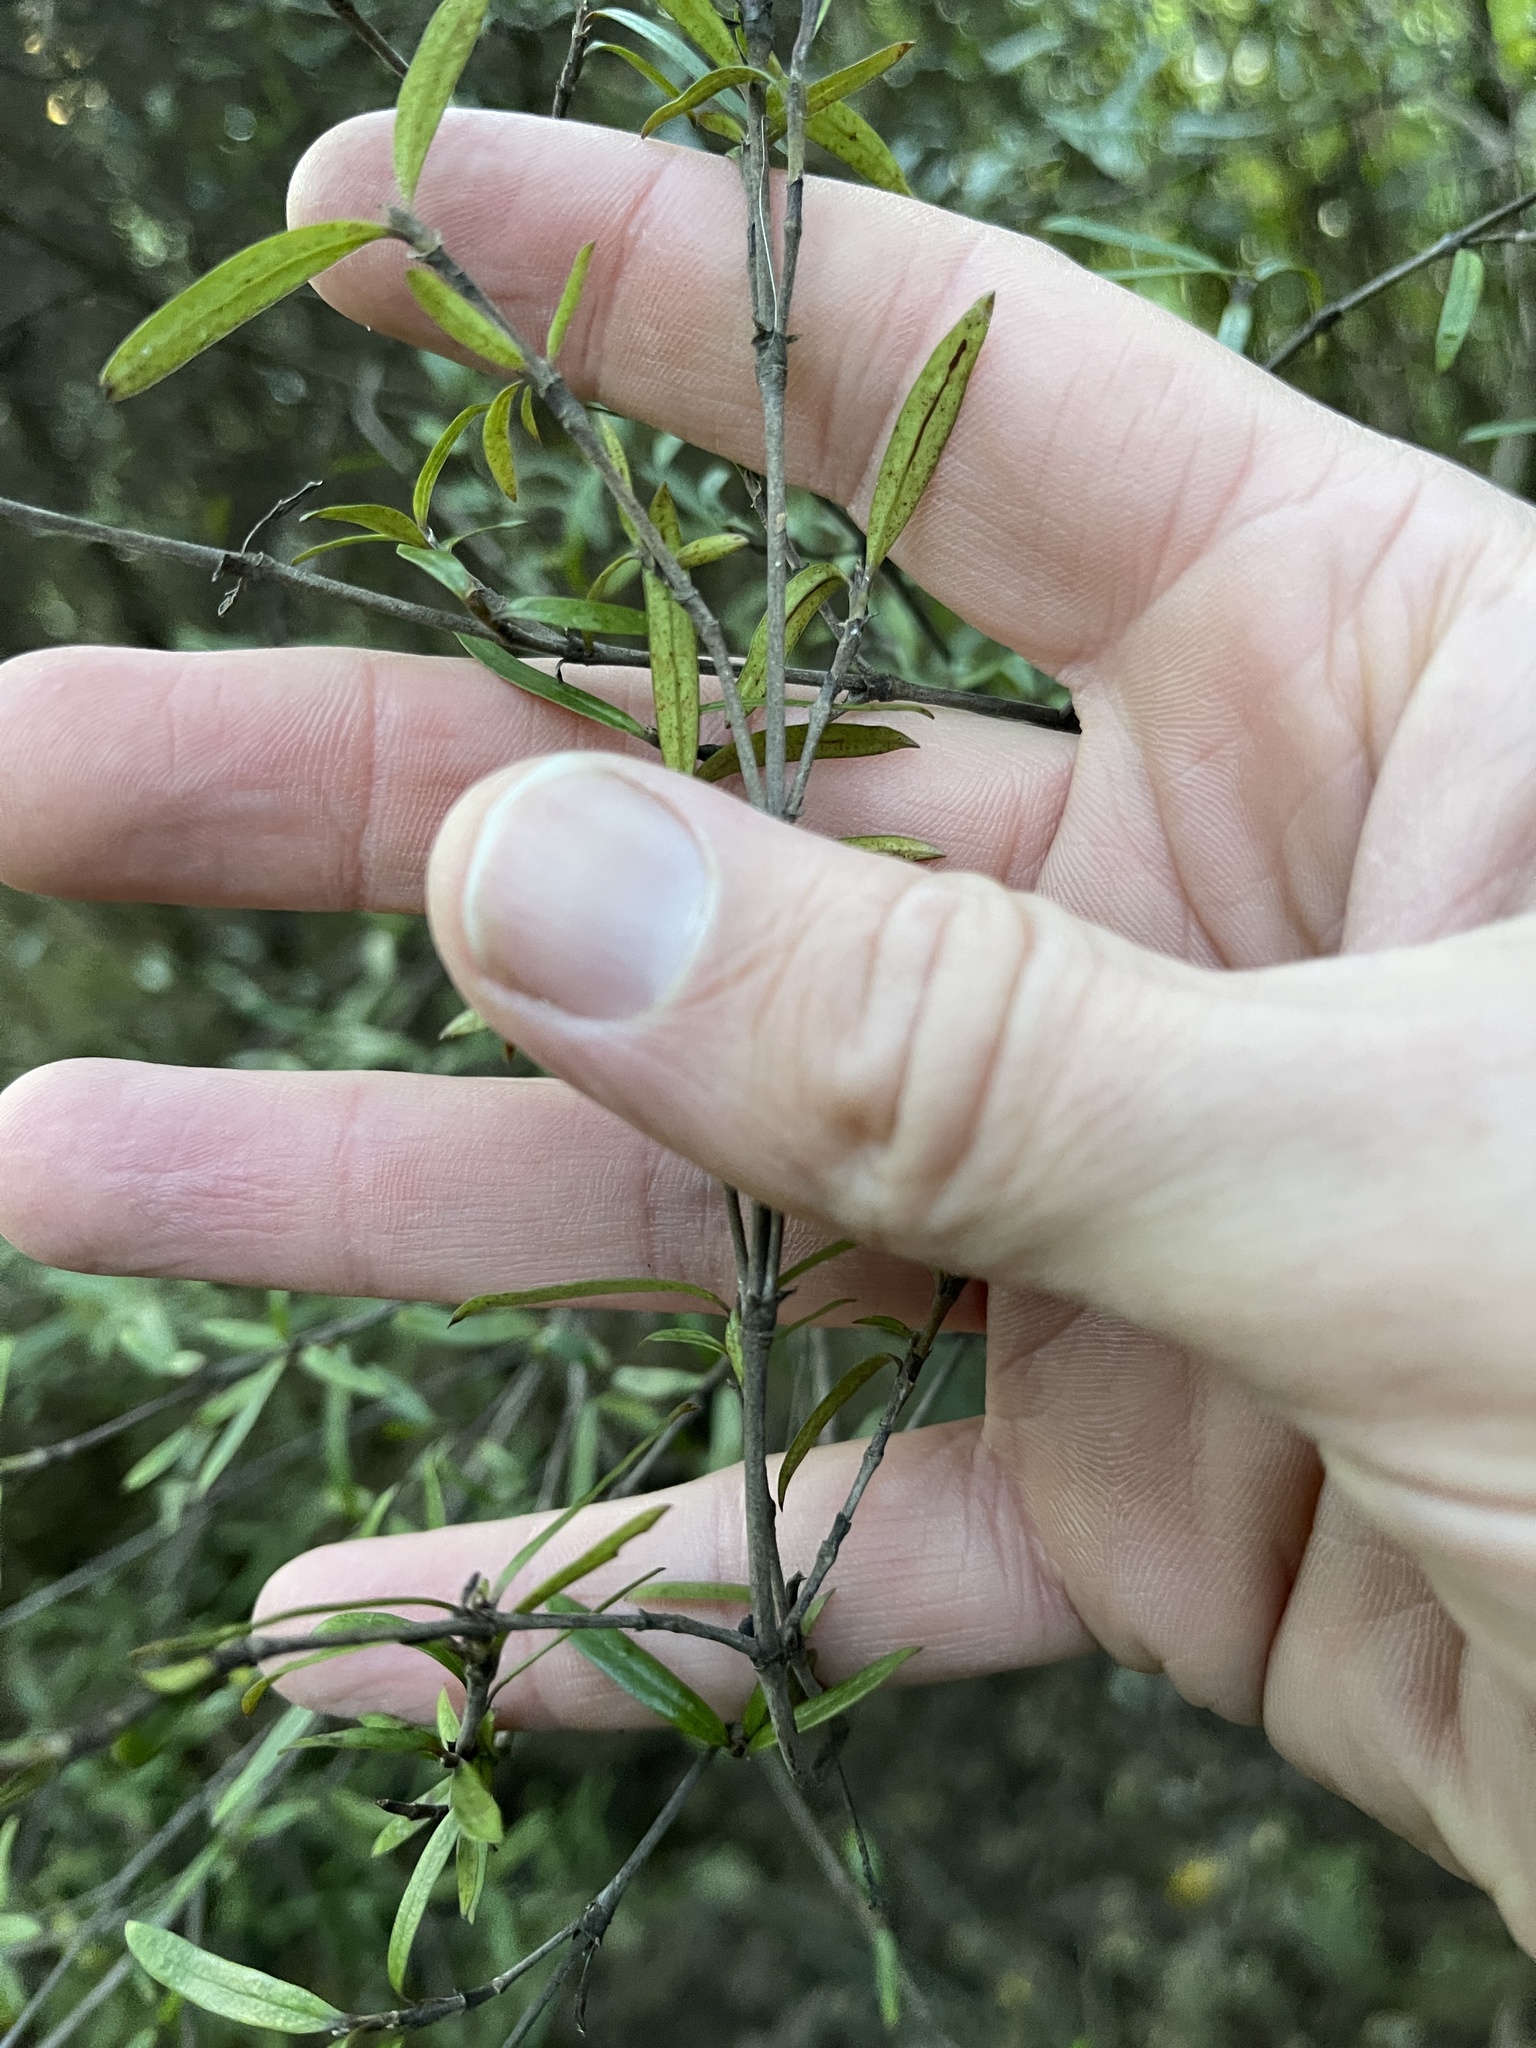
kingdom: Plantae
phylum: Tracheophyta
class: Magnoliopsida
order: Gentianales
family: Rubiaceae
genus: Coprosma
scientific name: Coprosma linariifolia
